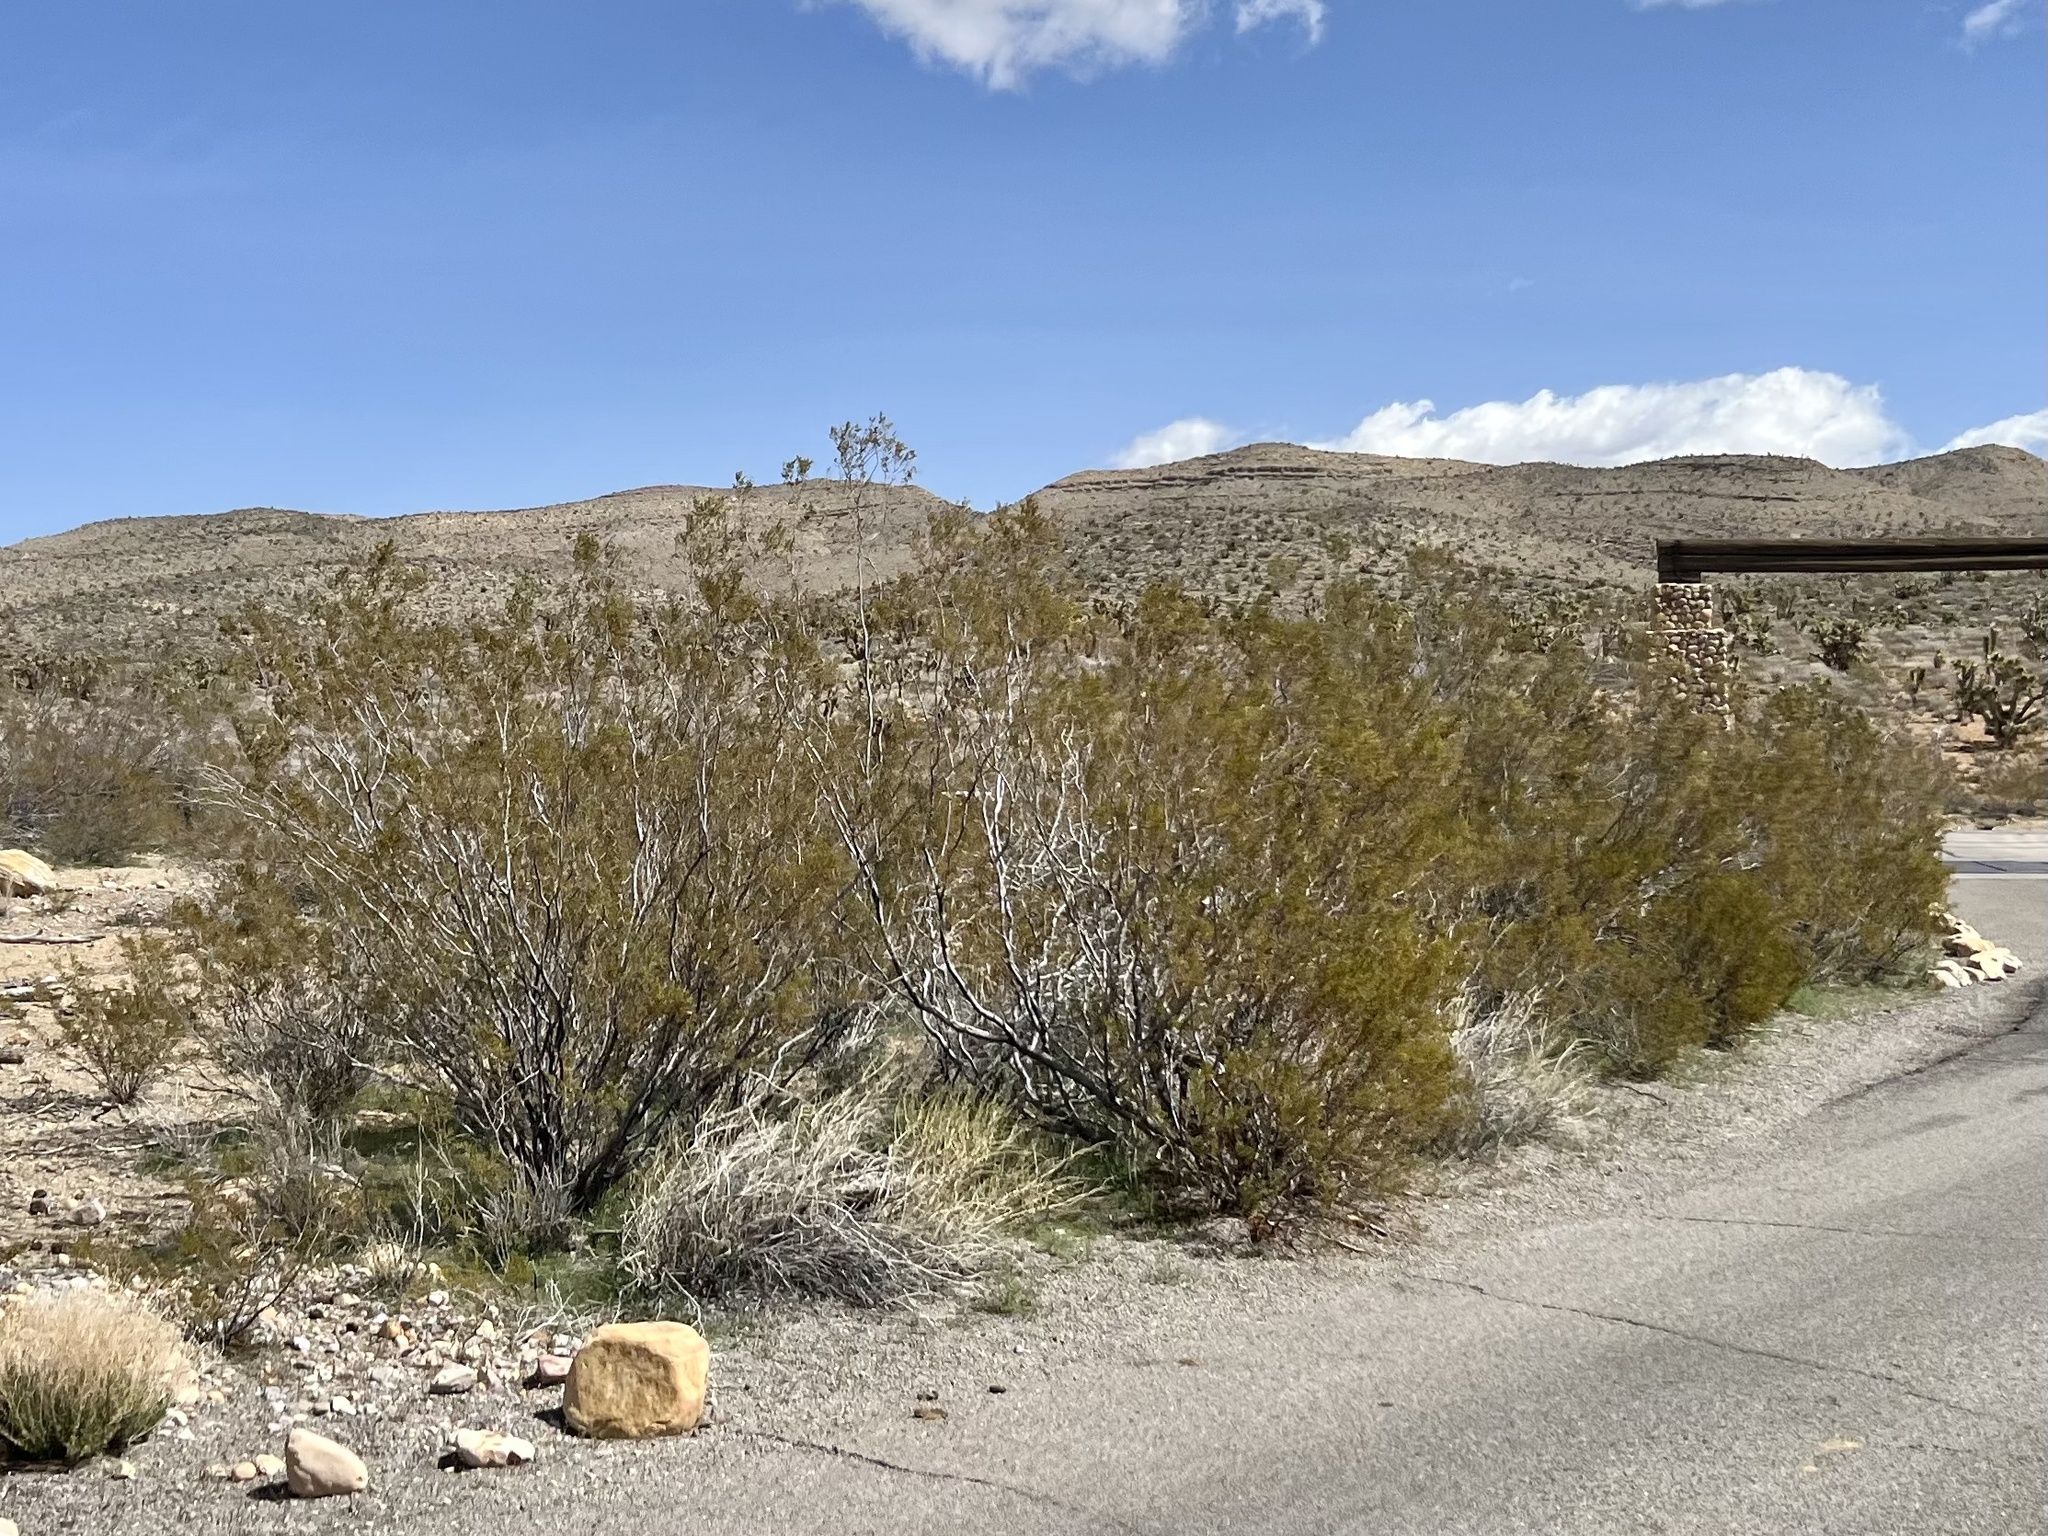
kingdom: Plantae
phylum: Tracheophyta
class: Magnoliopsida
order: Zygophyllales
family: Zygophyllaceae
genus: Larrea
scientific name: Larrea tridentata
